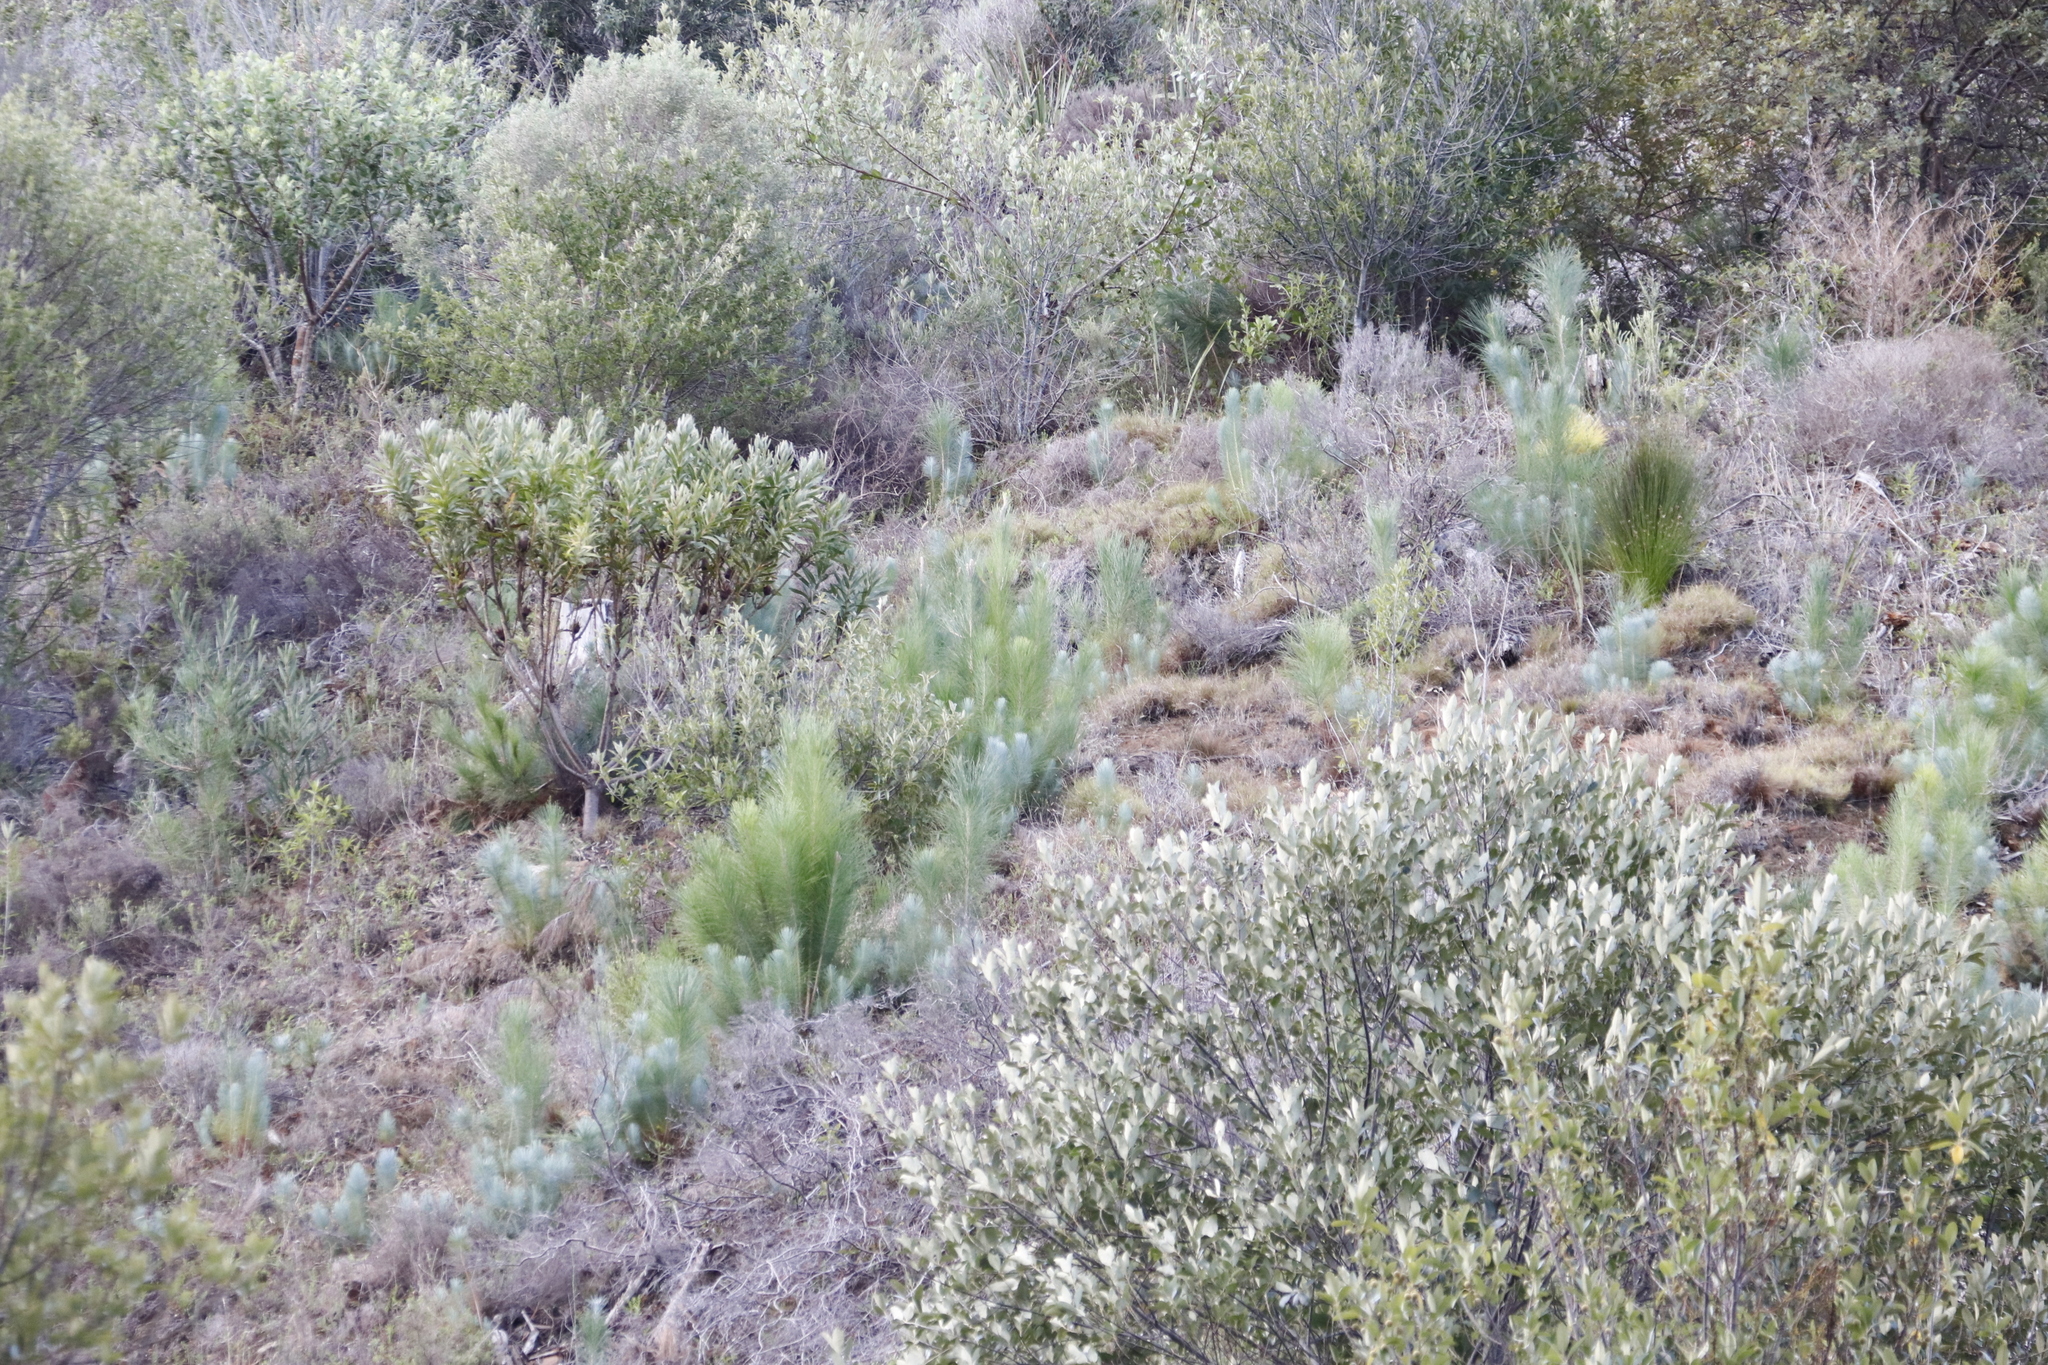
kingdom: Plantae
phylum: Tracheophyta
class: Pinopsida
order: Pinales
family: Pinaceae
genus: Pinus
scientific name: Pinus canariensis
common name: Canary islands pine
